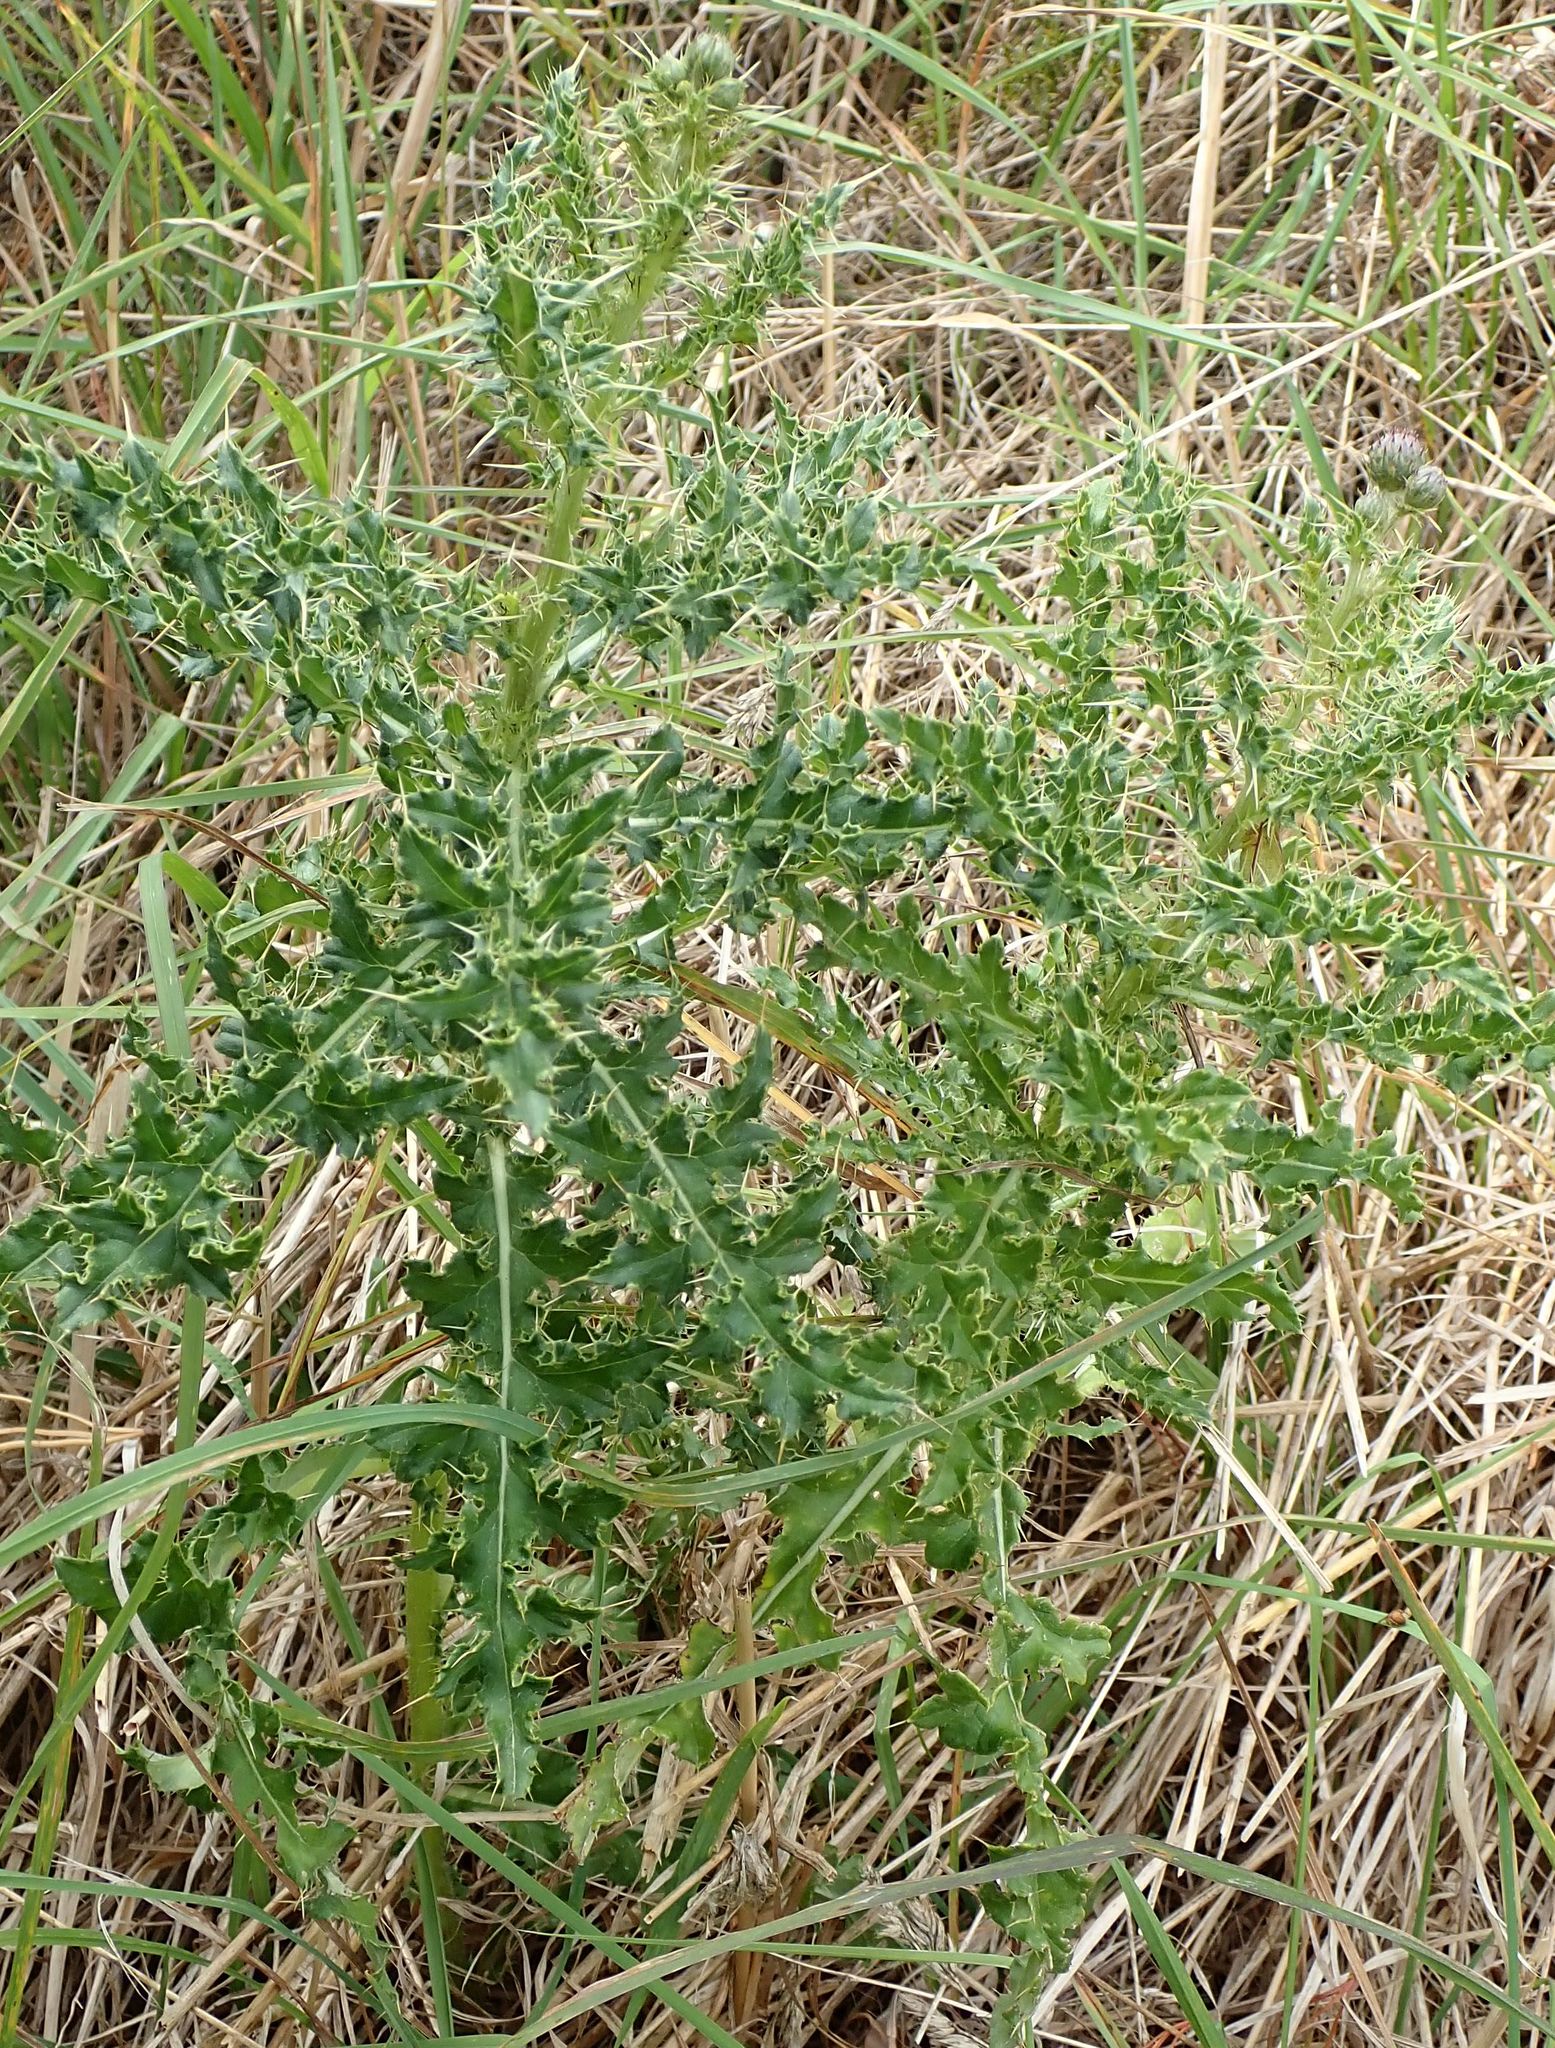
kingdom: Plantae
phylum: Tracheophyta
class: Magnoliopsida
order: Asterales
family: Asteraceae
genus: Cirsium
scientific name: Cirsium arvense
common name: Creeping thistle
